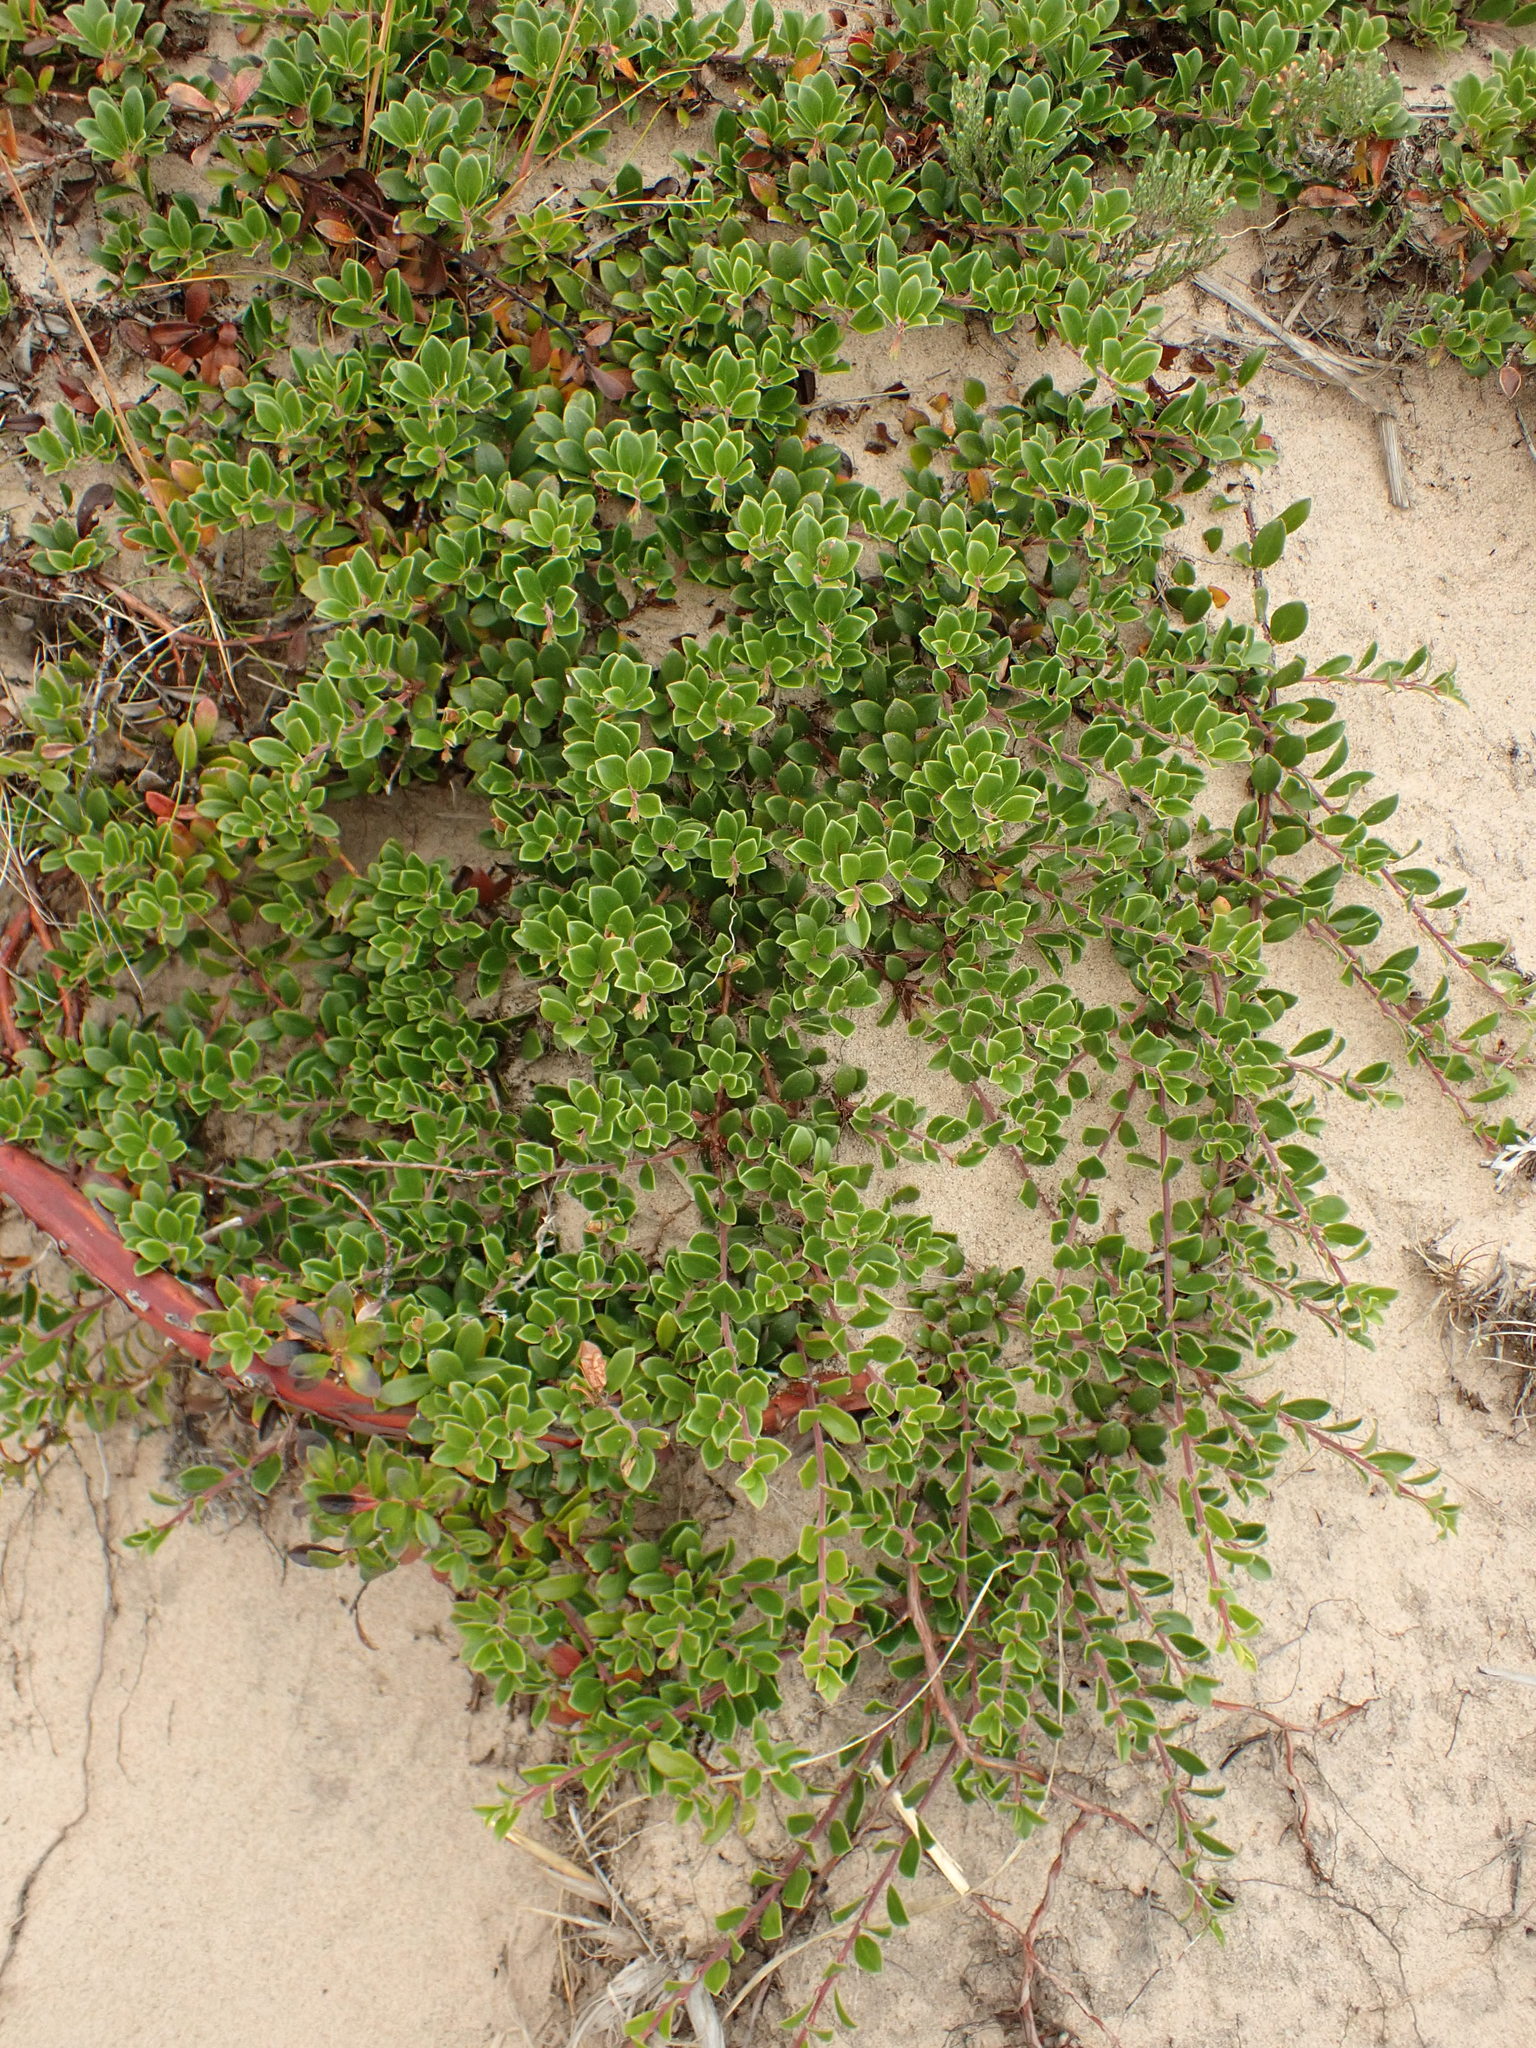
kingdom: Plantae
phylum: Tracheophyta
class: Magnoliopsida
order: Ericales
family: Ericaceae
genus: Arctostaphylos
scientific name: Arctostaphylos uva-ursi
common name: Bearberry
